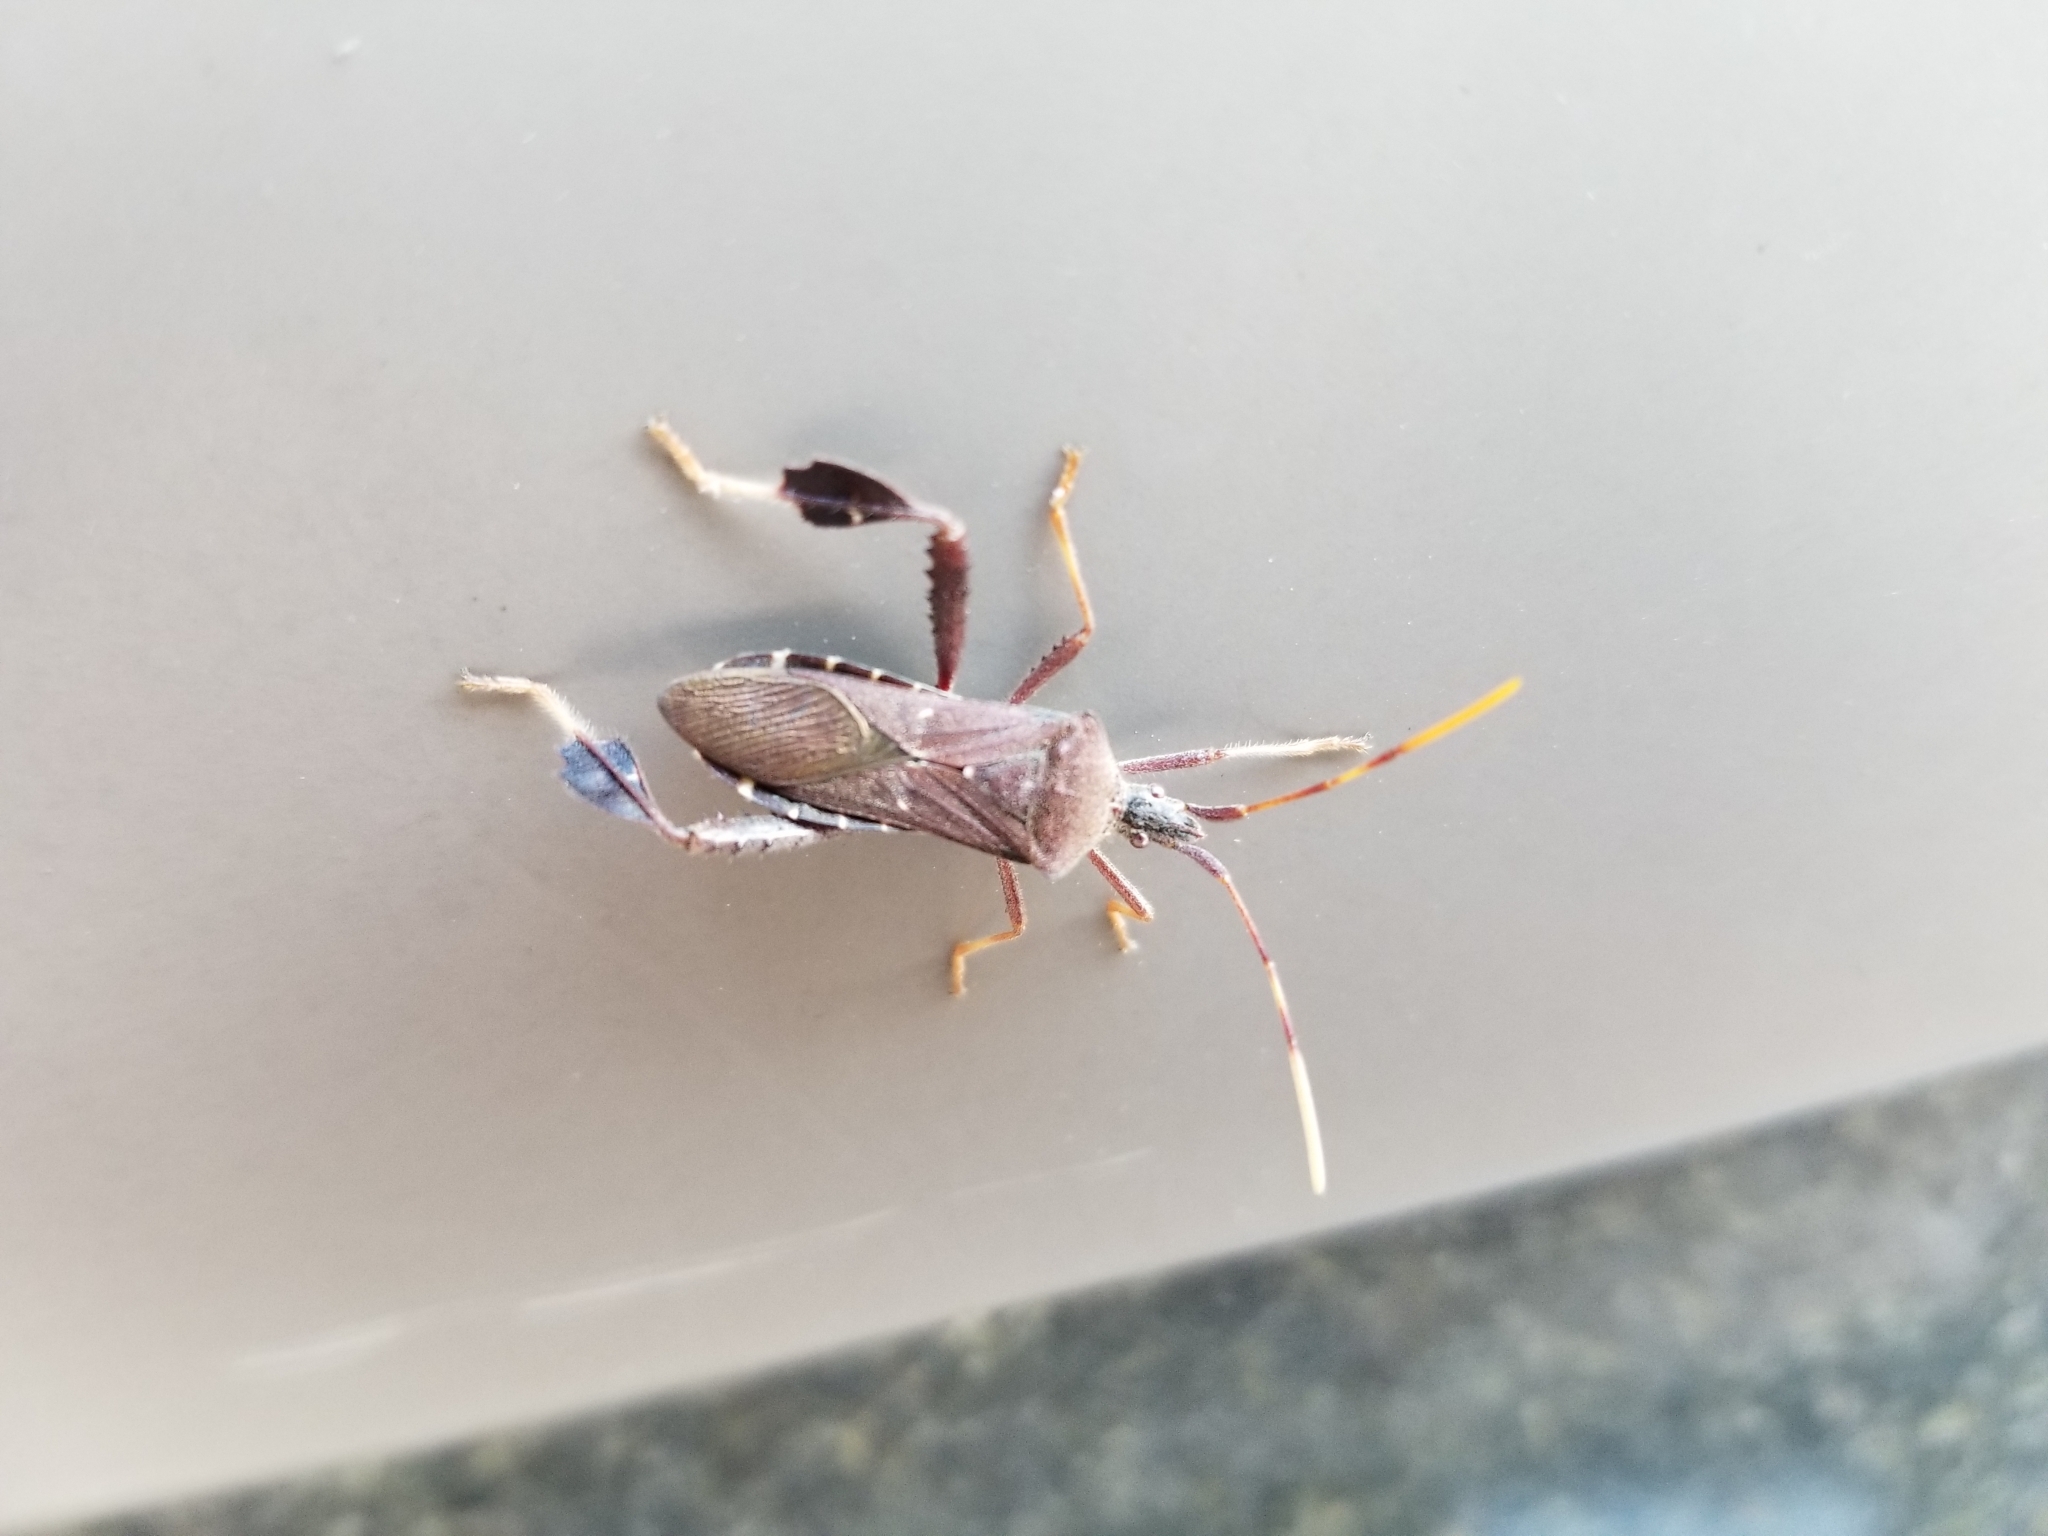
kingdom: Animalia
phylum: Arthropoda
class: Insecta
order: Hemiptera
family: Coreidae
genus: Leptoglossus
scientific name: Leptoglossus oppositus
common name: Northern leaf-footed bug
